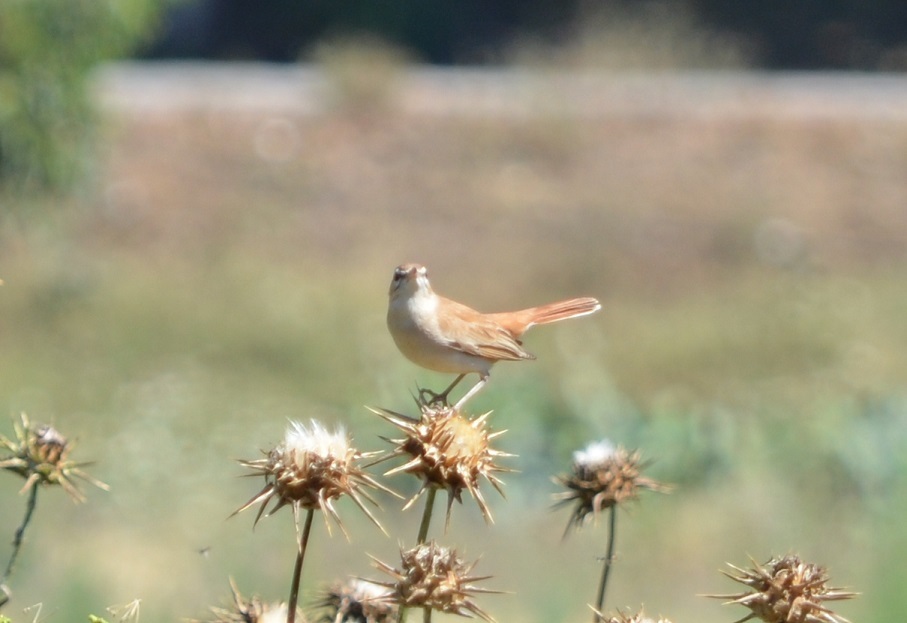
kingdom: Animalia
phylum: Chordata
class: Aves
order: Passeriformes
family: Muscicapidae
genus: Erythropygia
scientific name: Erythropygia galactotes
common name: Rufous-tailed scrub robin
